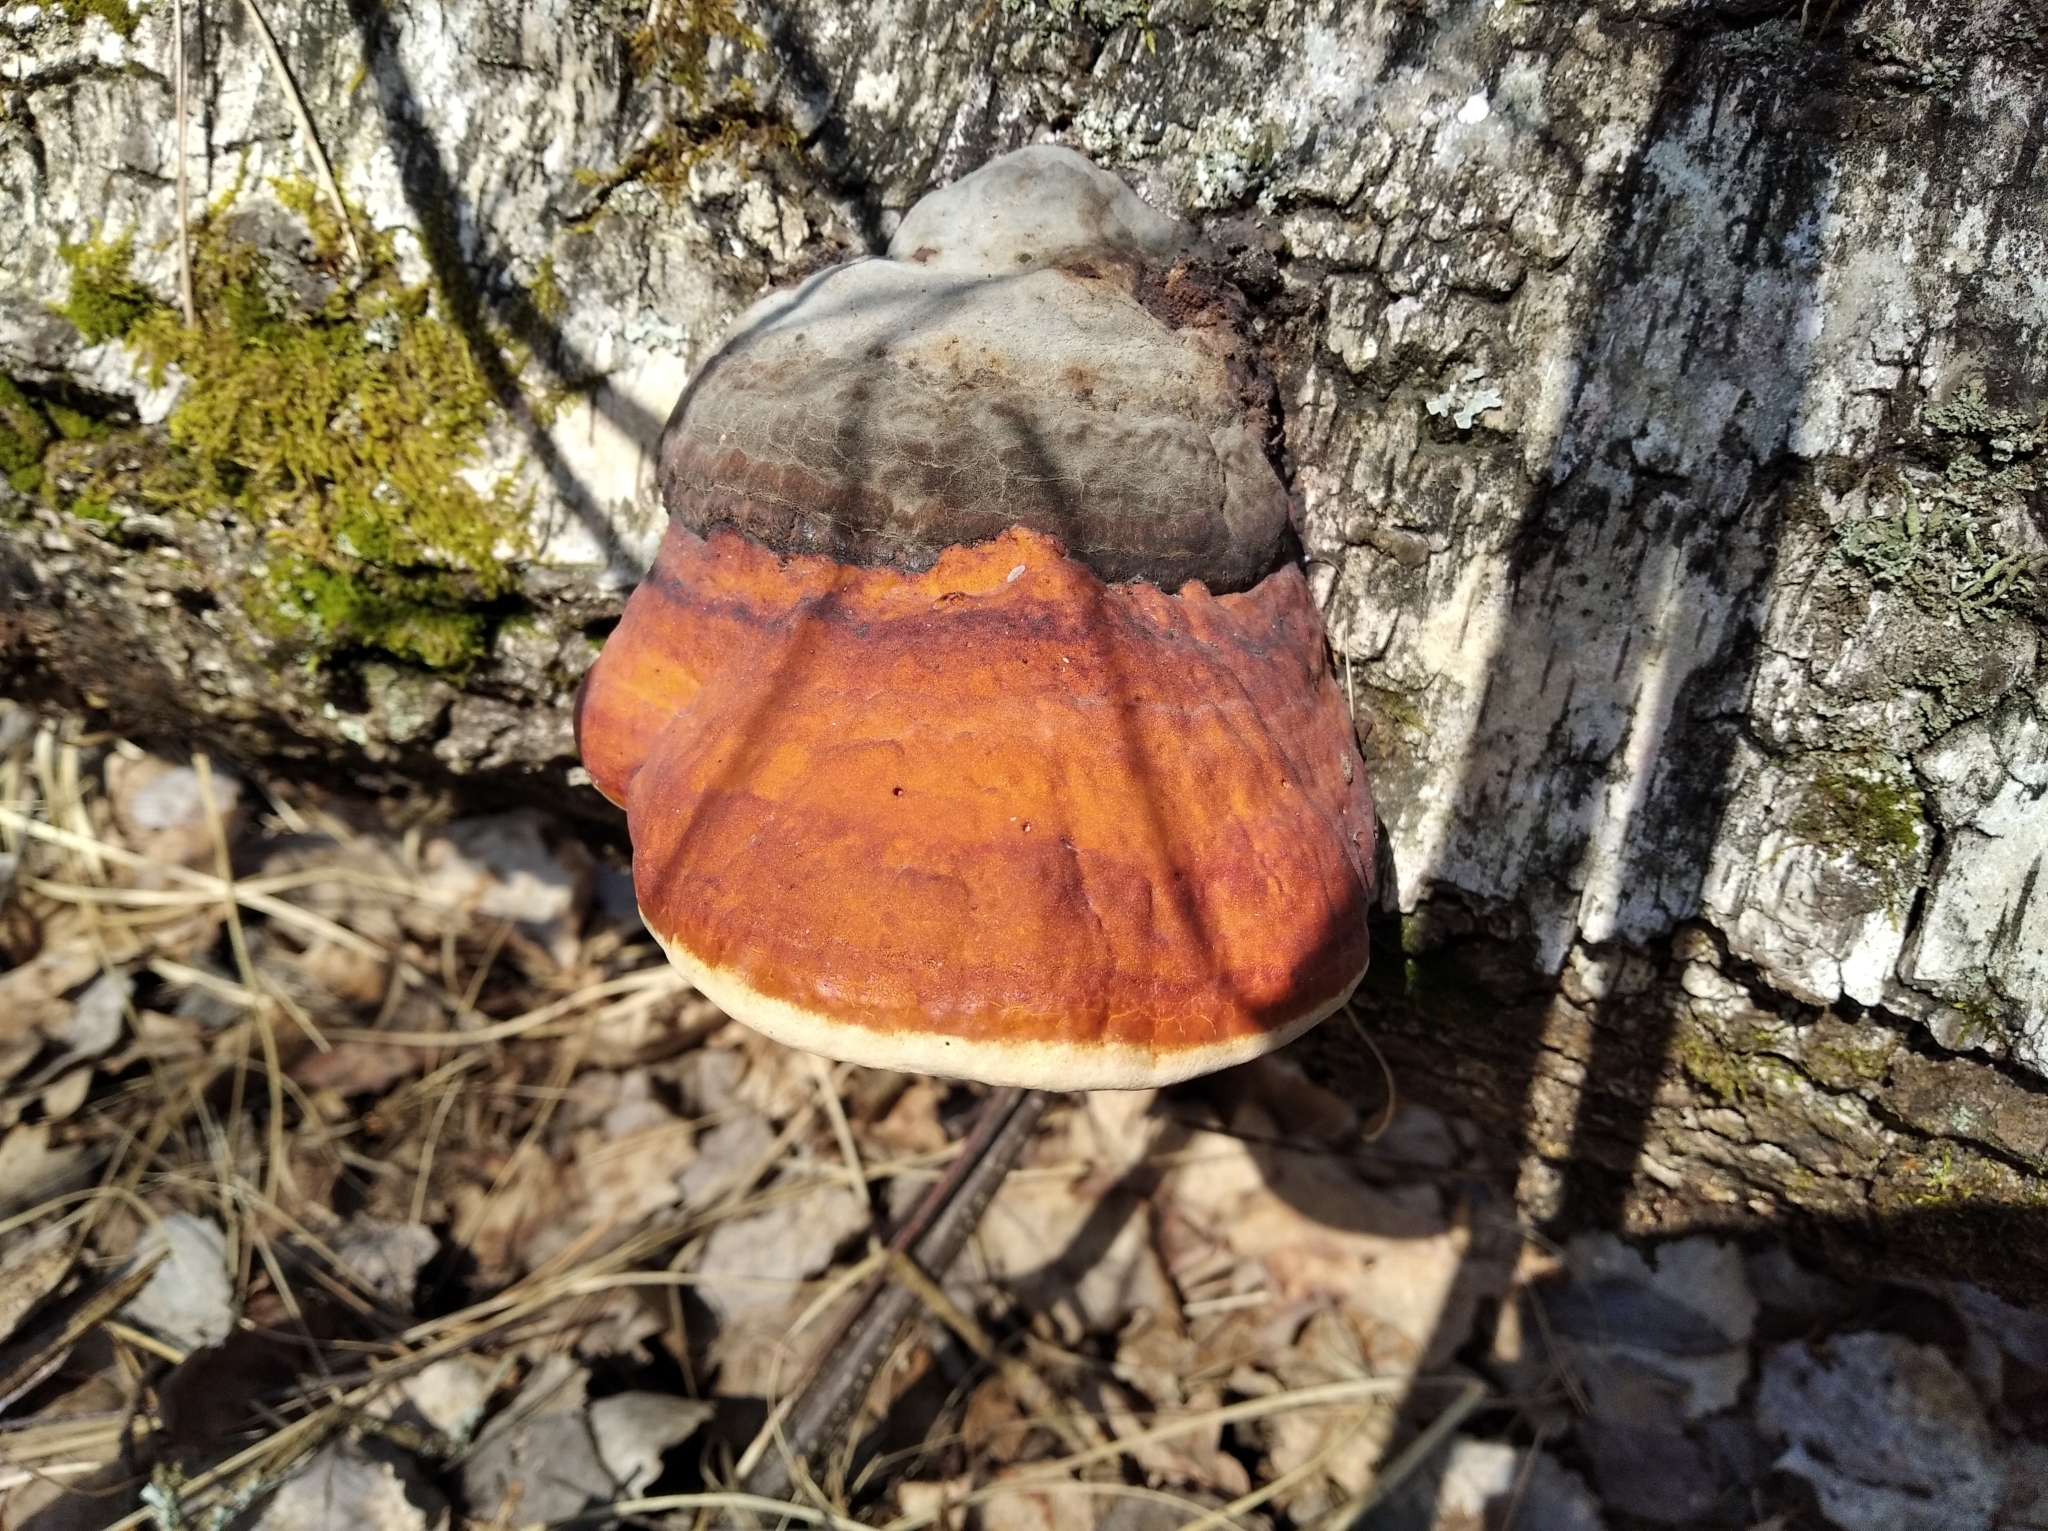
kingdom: Fungi
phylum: Basidiomycota
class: Agaricomycetes
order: Polyporales
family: Fomitopsidaceae
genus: Fomitopsis
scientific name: Fomitopsis pinicola
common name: Red-belted bracket
